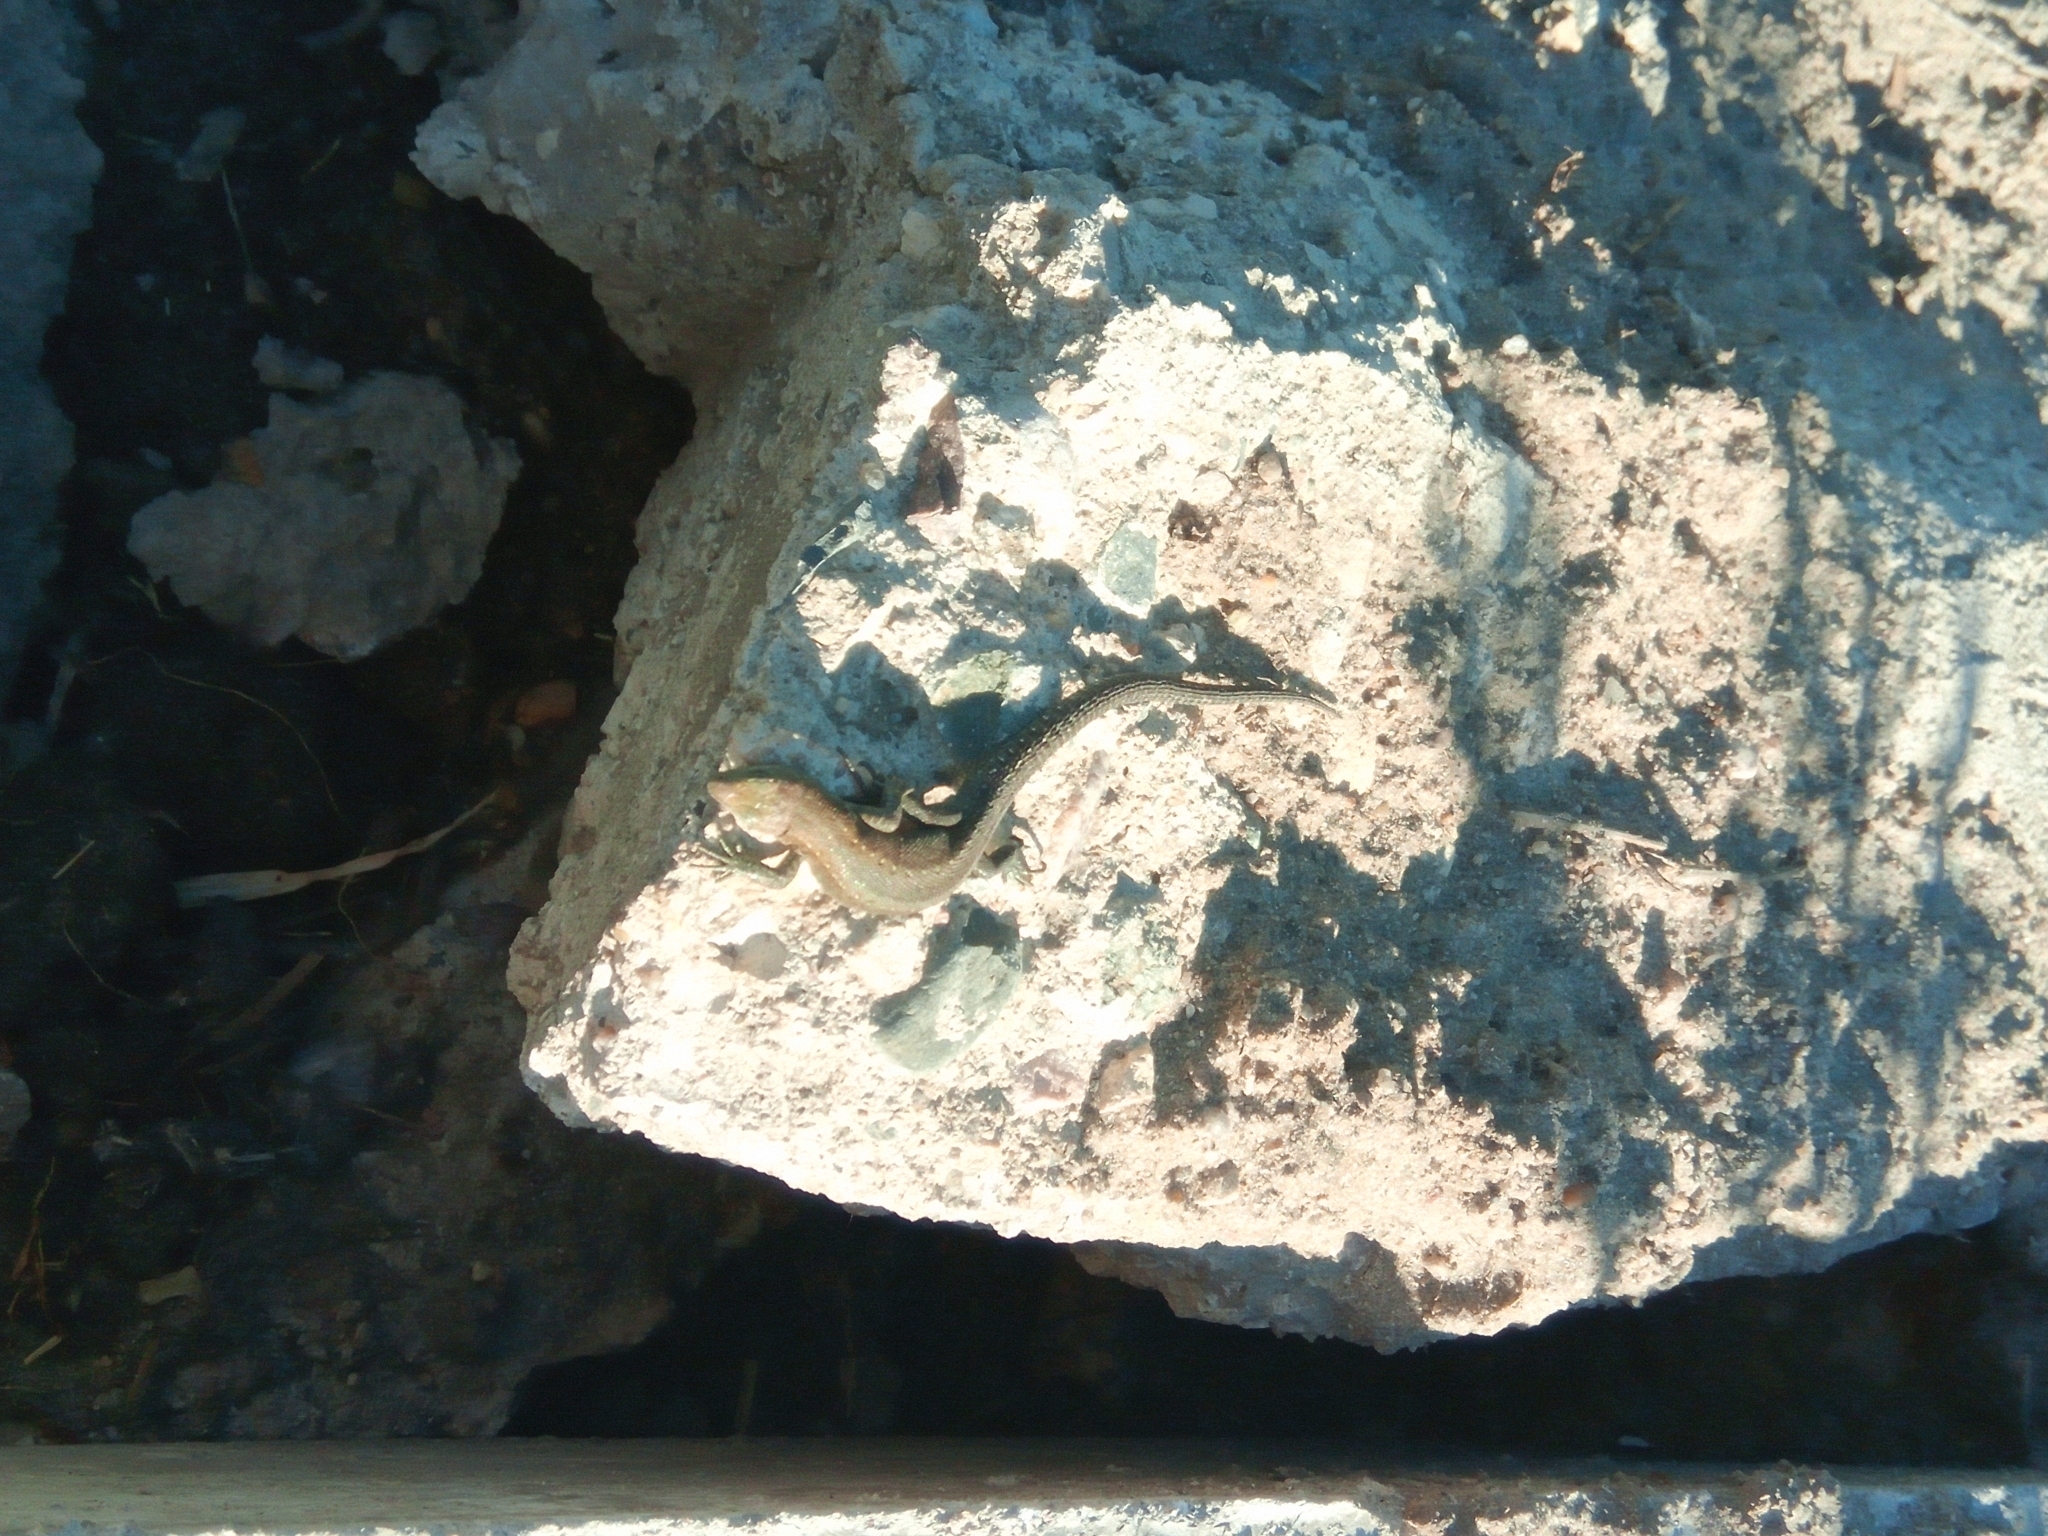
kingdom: Animalia
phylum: Chordata
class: Squamata
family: Lacertidae
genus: Zootoca
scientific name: Zootoca vivipara
